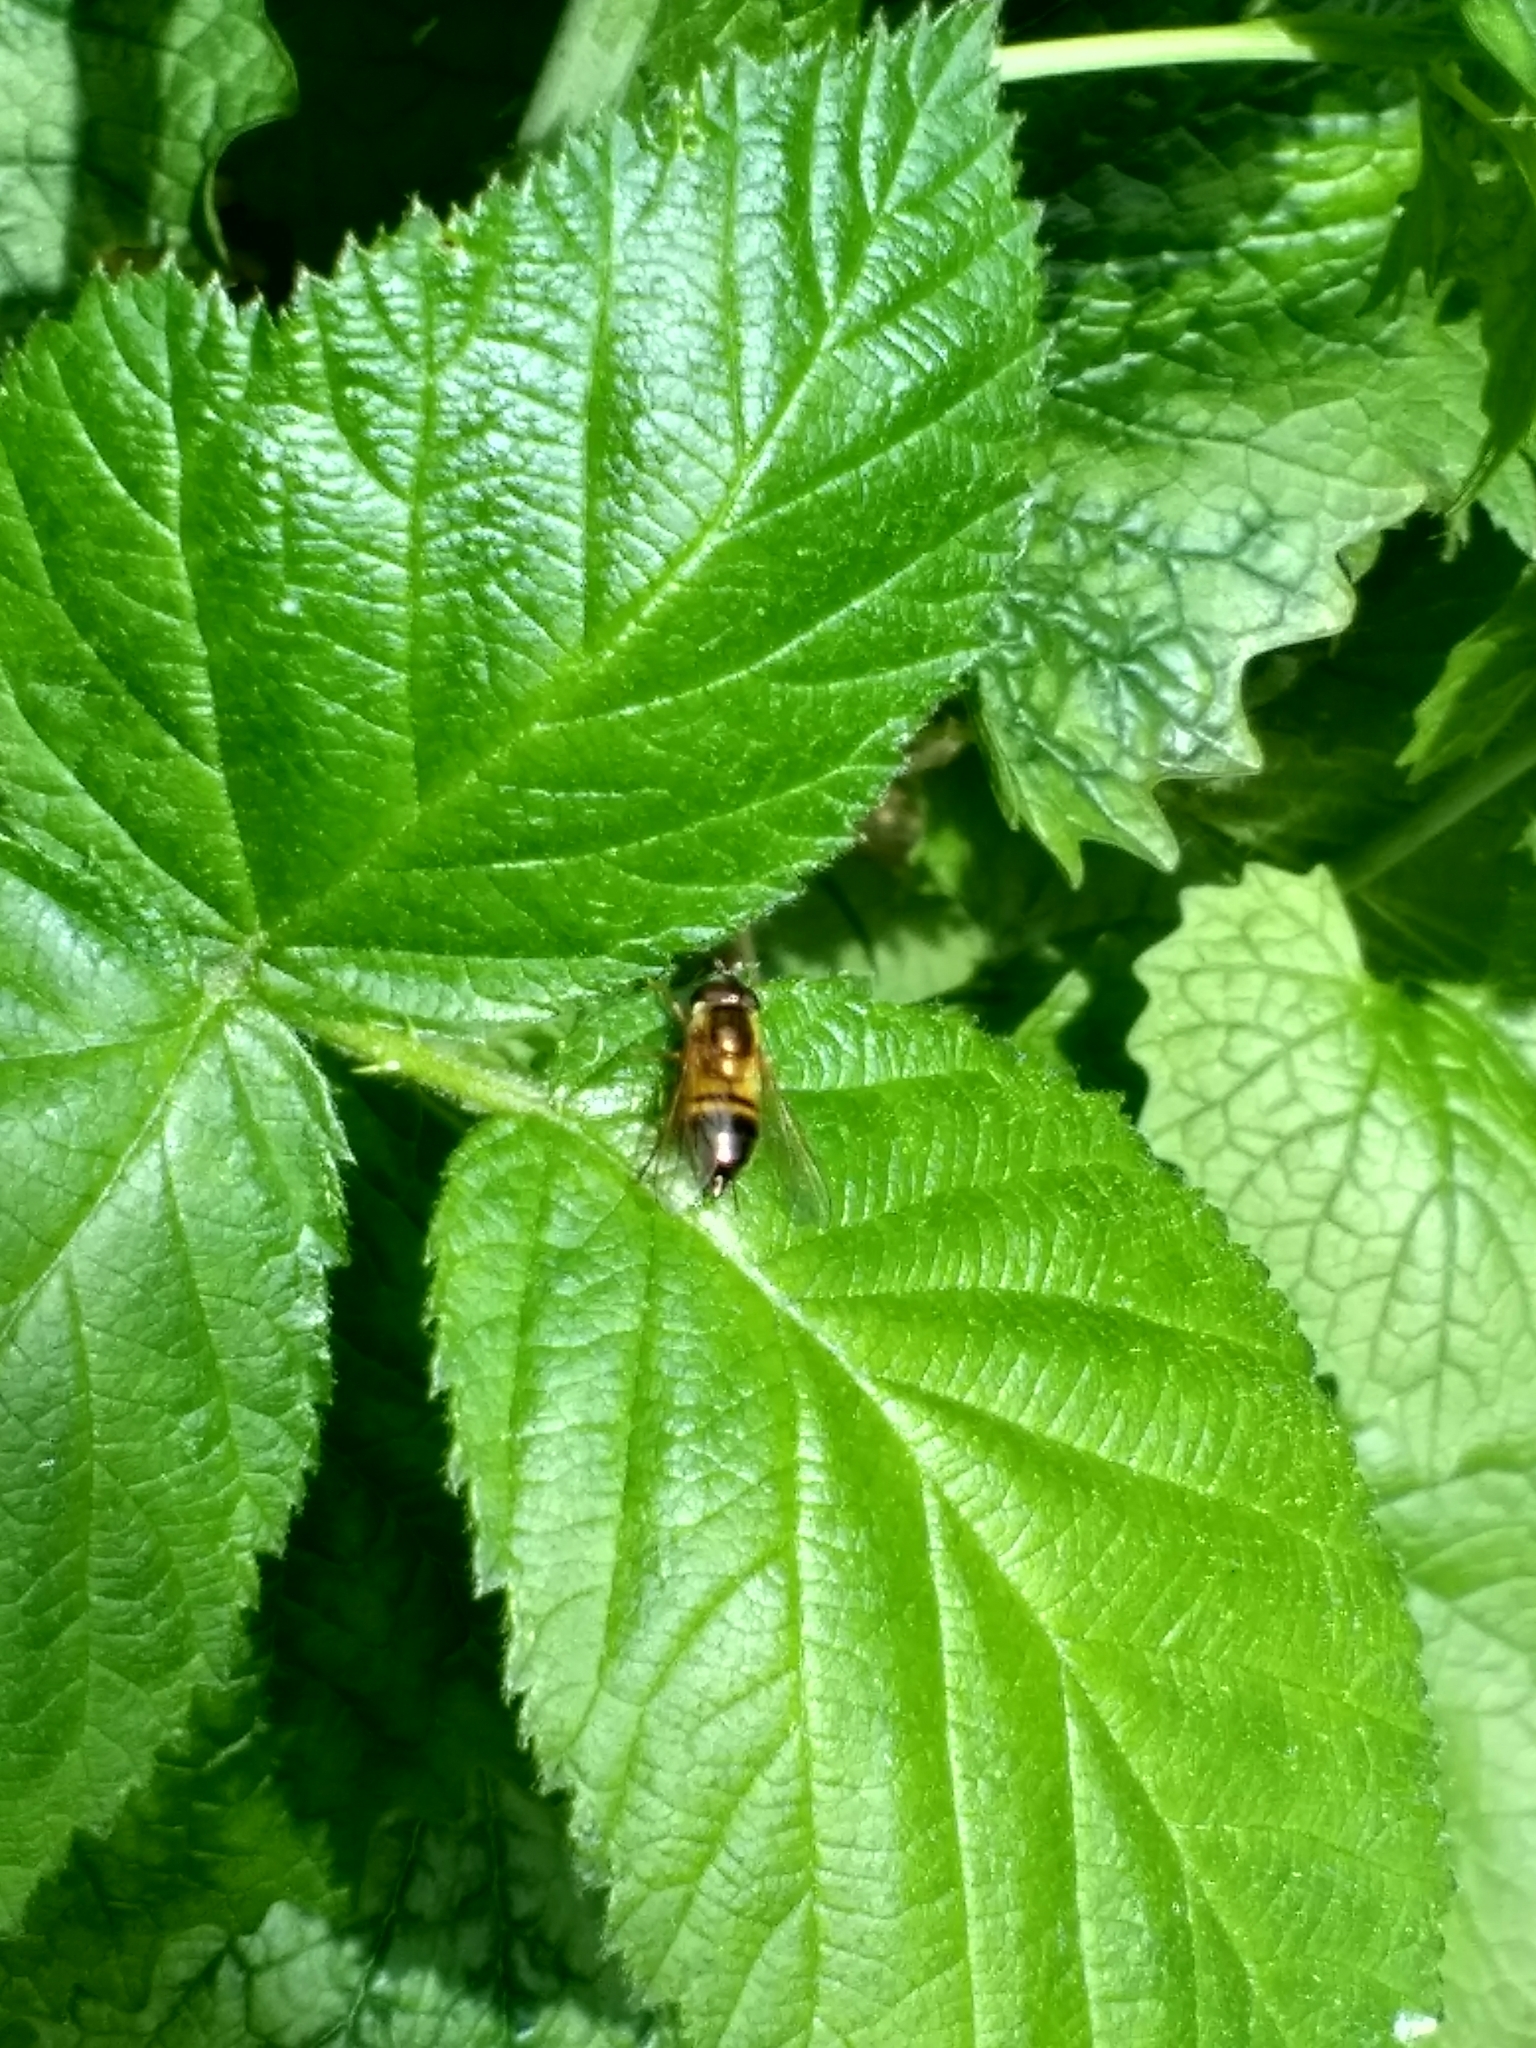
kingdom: Animalia
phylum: Arthropoda
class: Insecta
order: Diptera
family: Syrphidae
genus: Epistrophe
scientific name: Epistrophe eligans
